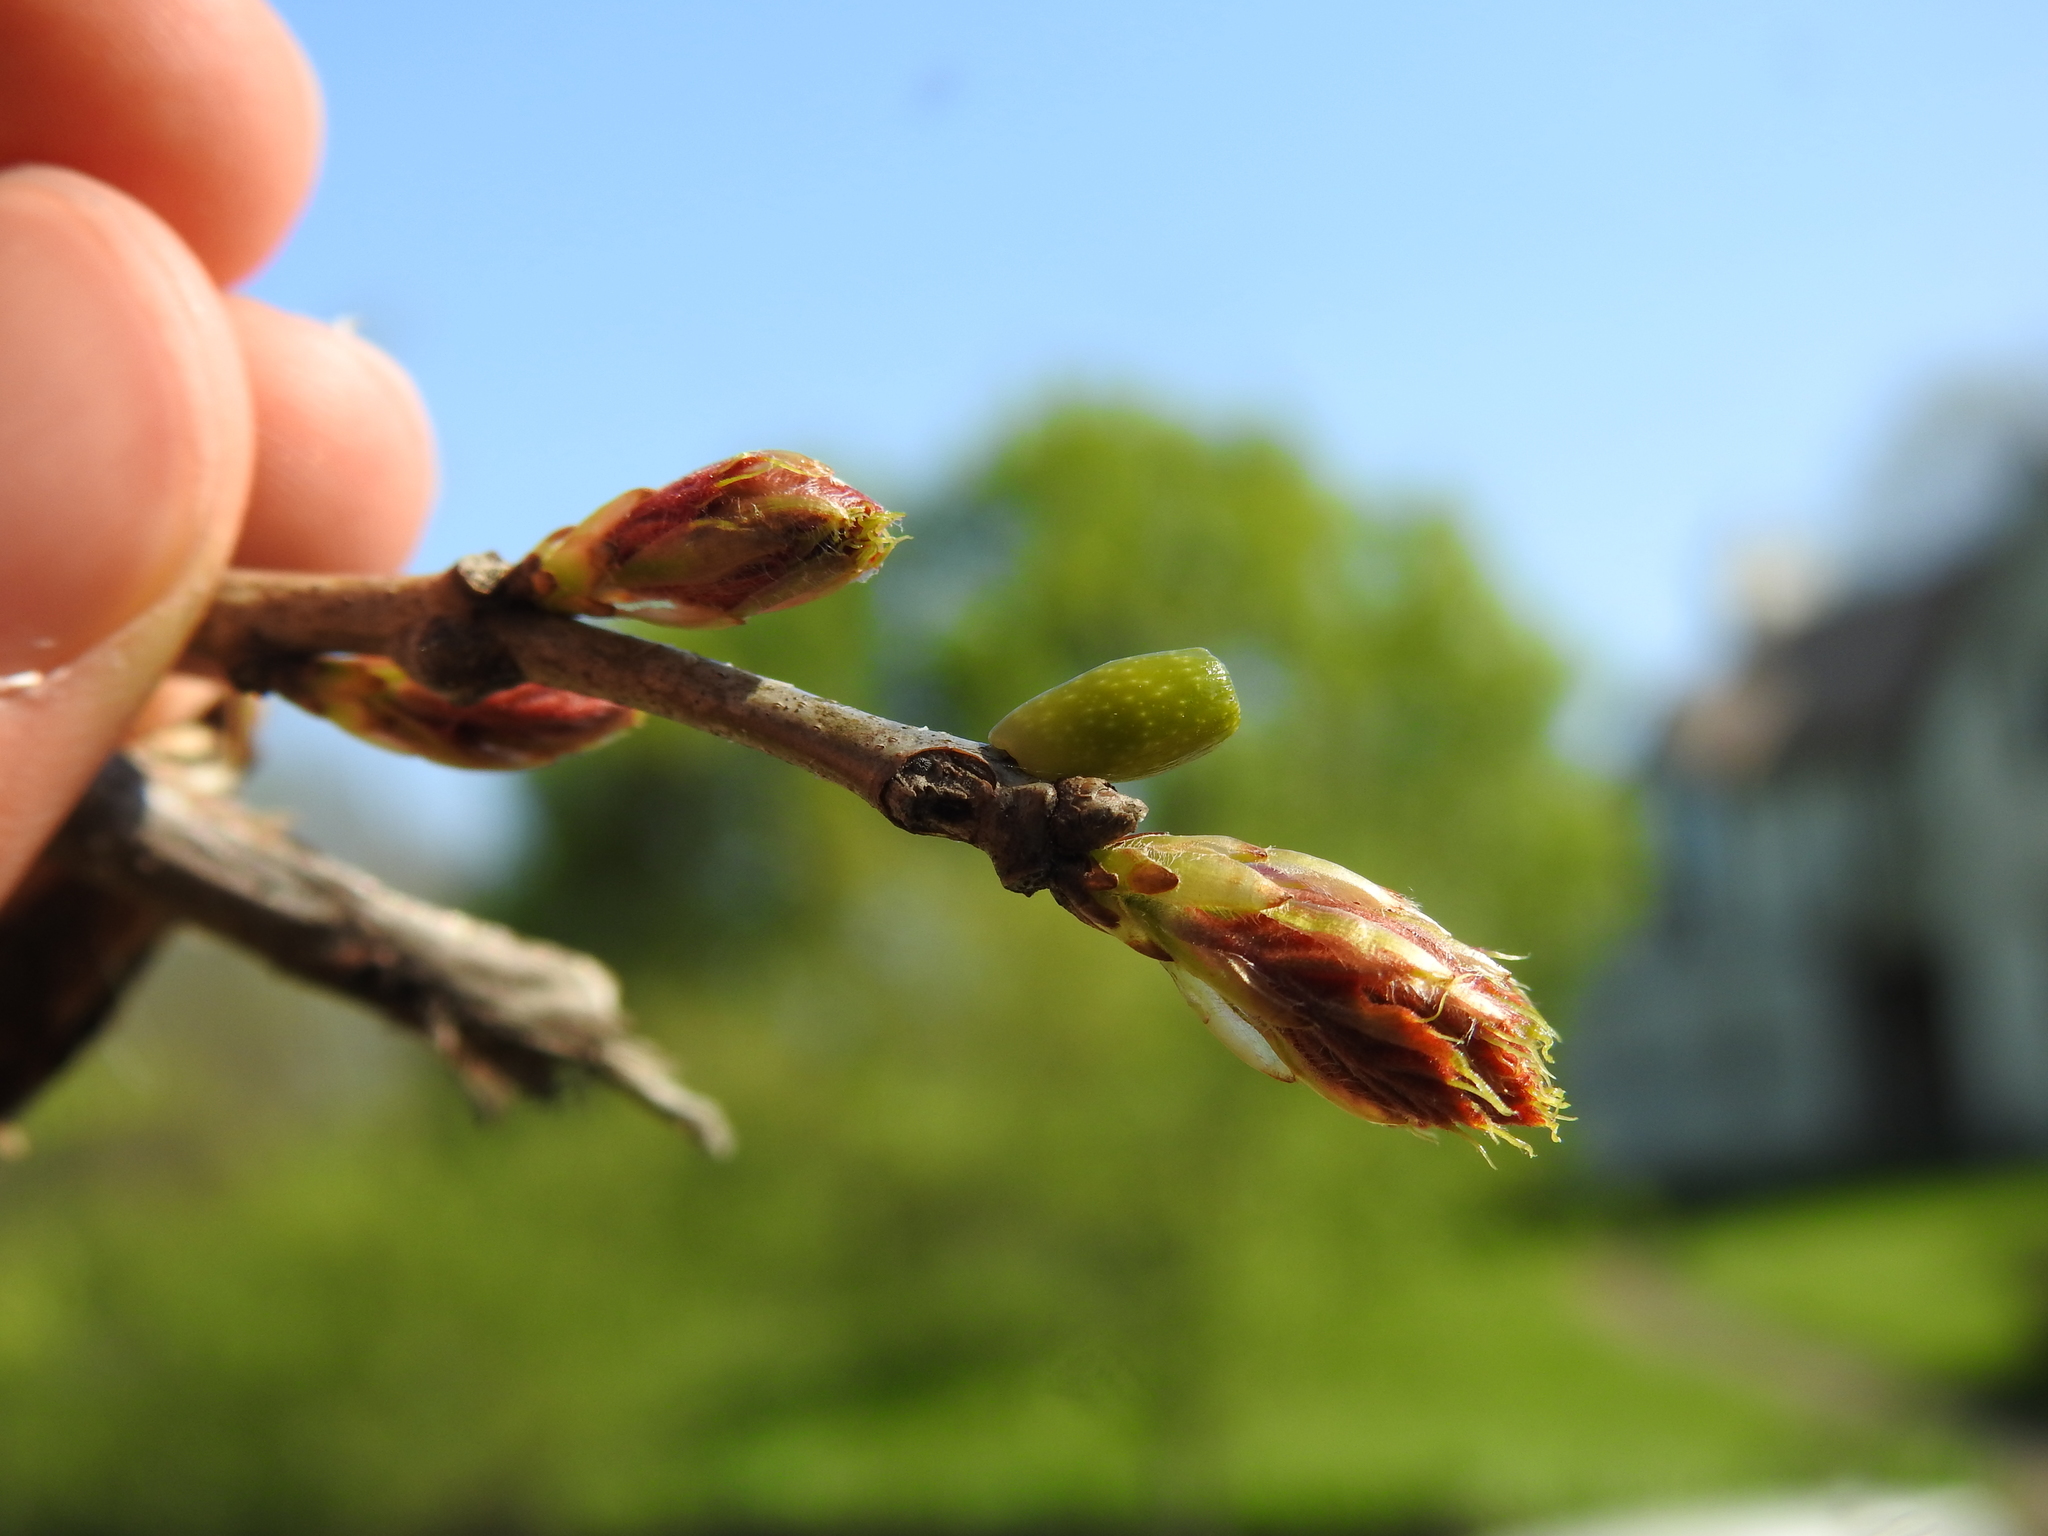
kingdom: Animalia
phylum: Arthropoda
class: Insecta
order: Hymenoptera
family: Cynipidae
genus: Amphibolips
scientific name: Amphibolips
